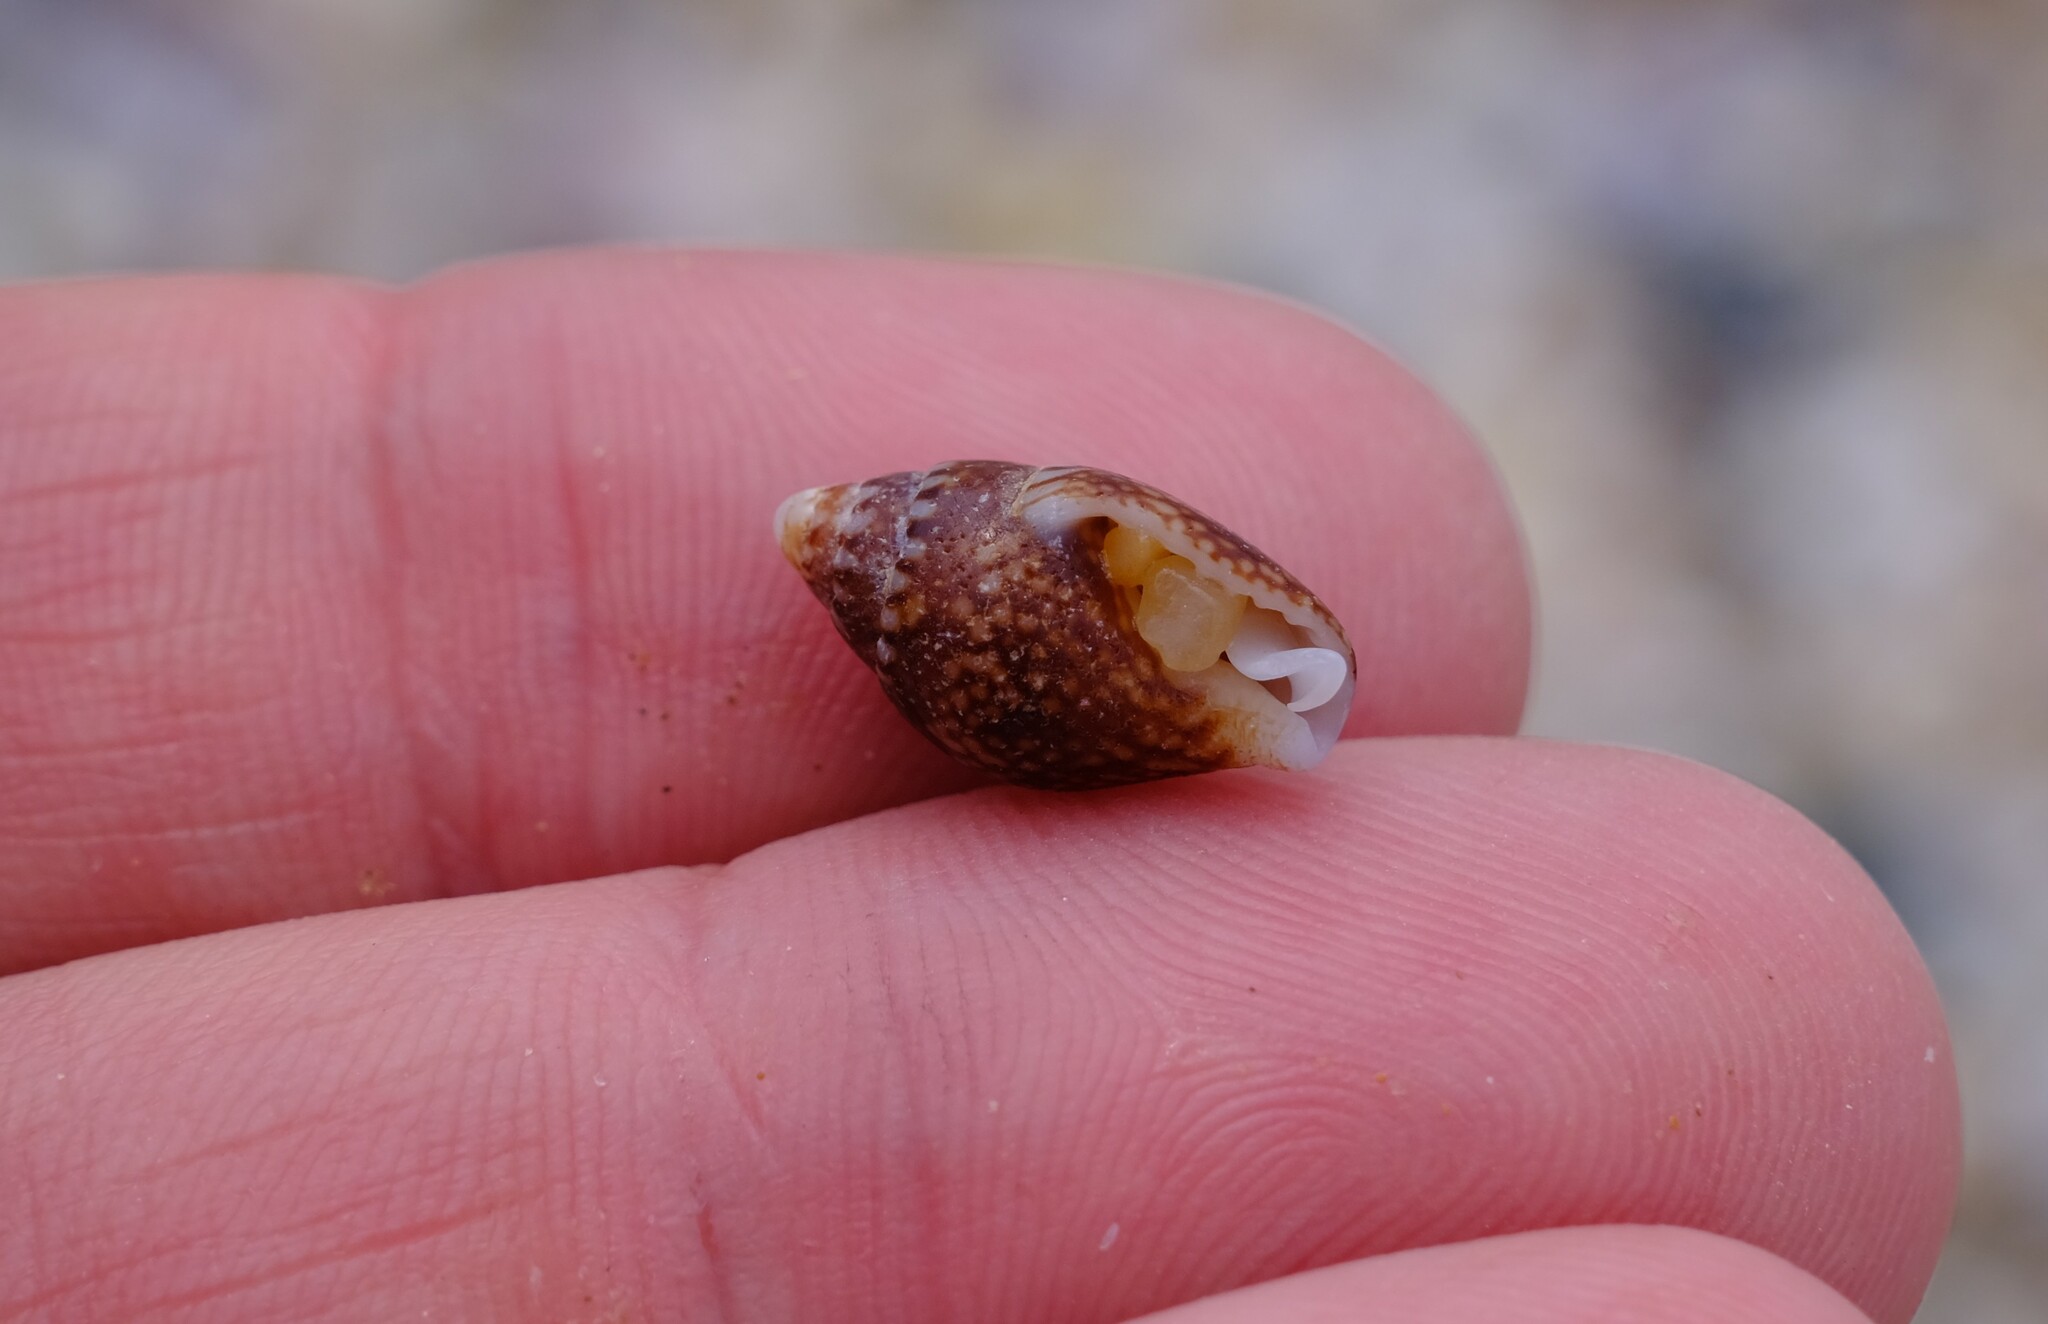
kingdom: Animalia
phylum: Mollusca
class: Gastropoda
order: Neogastropoda
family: Columbellidae
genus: Pardalinops de
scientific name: Pardalinops de Pardalinops testudinaria
